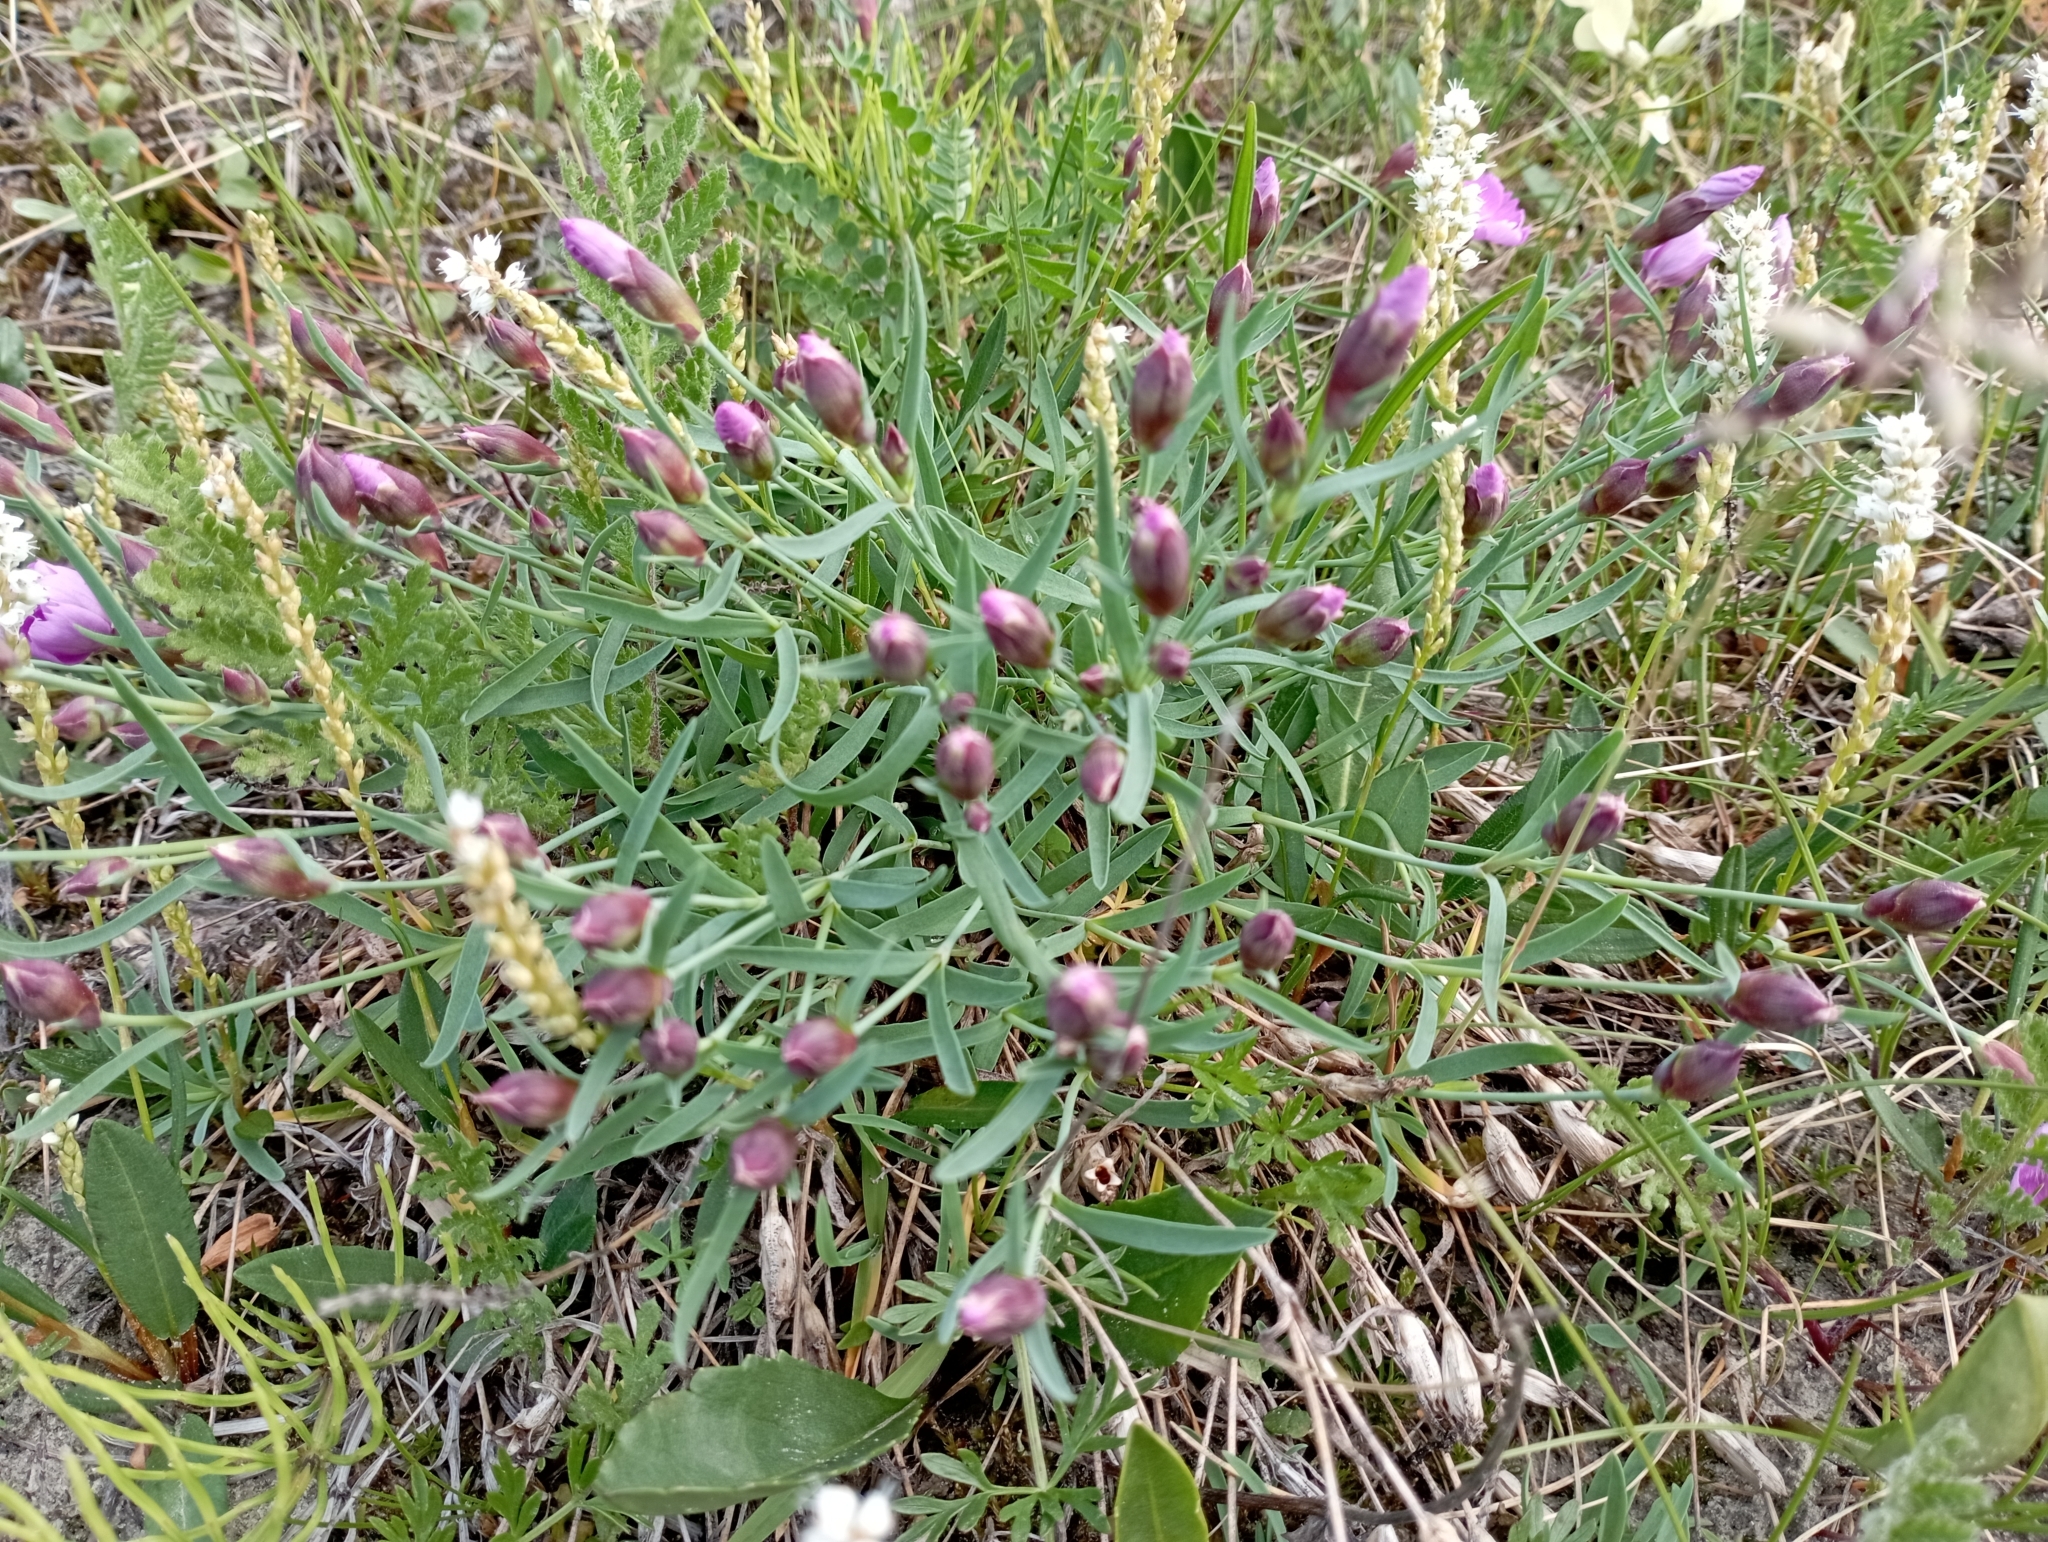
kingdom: Plantae
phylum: Tracheophyta
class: Magnoliopsida
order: Caryophyllales
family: Caryophyllaceae
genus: Dianthus
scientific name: Dianthus repens
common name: Northern pink
